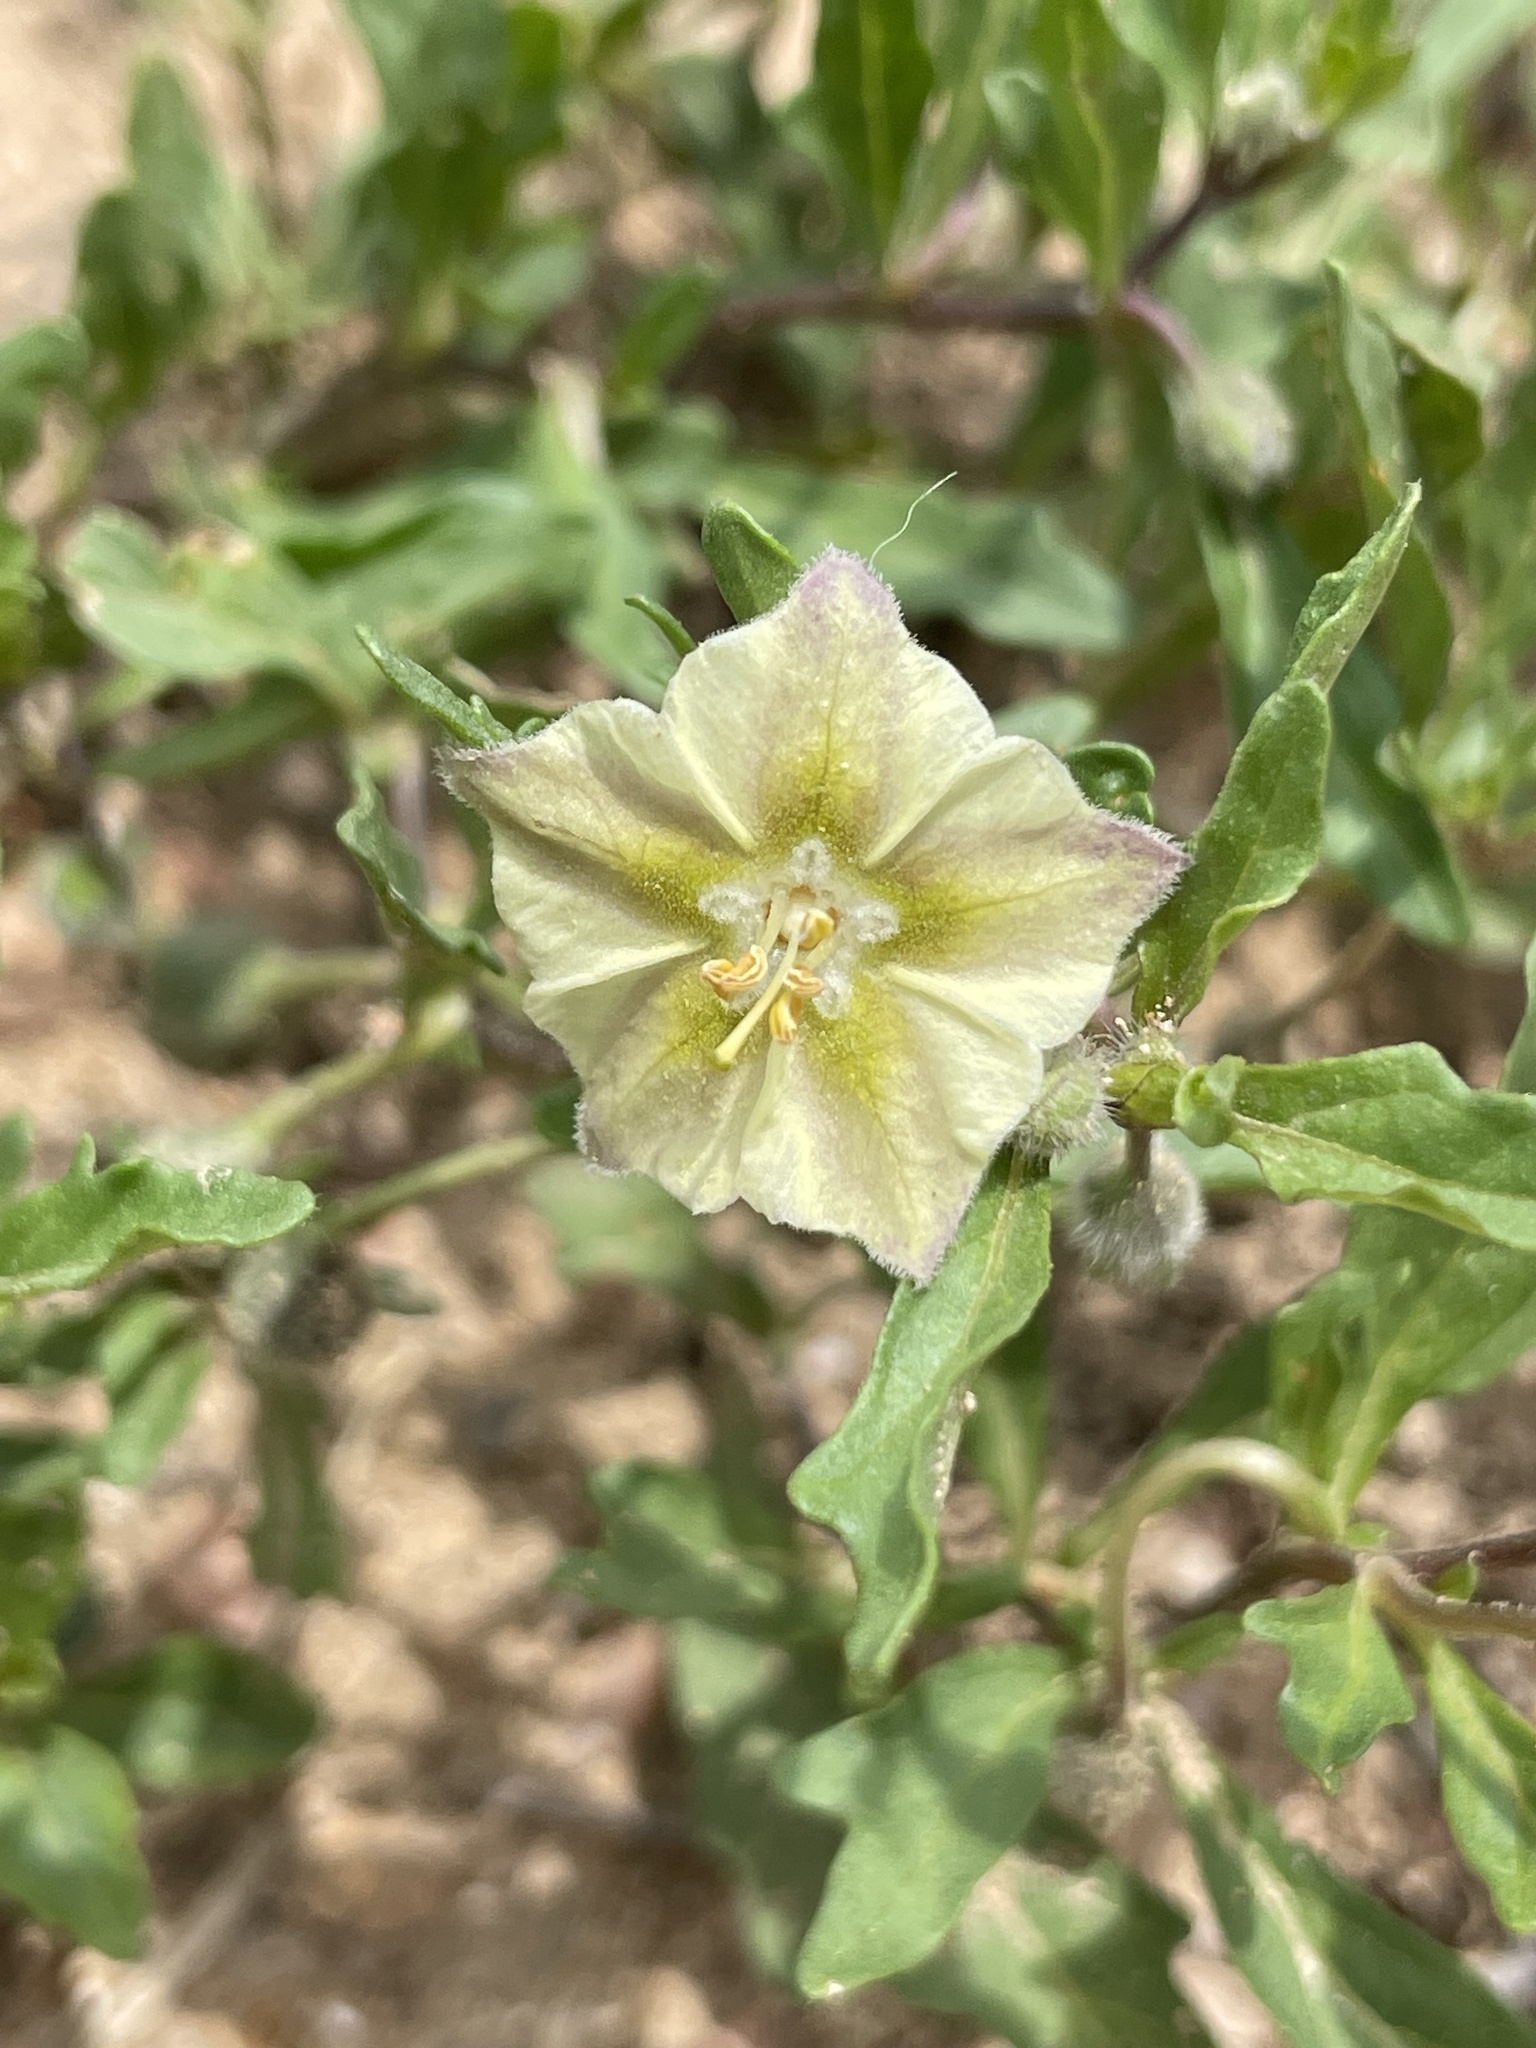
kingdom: Plantae
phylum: Tracheophyta
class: Magnoliopsida
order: Solanales
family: Solanaceae
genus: Chamaesaracha
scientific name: Chamaesaracha edwardsiana
